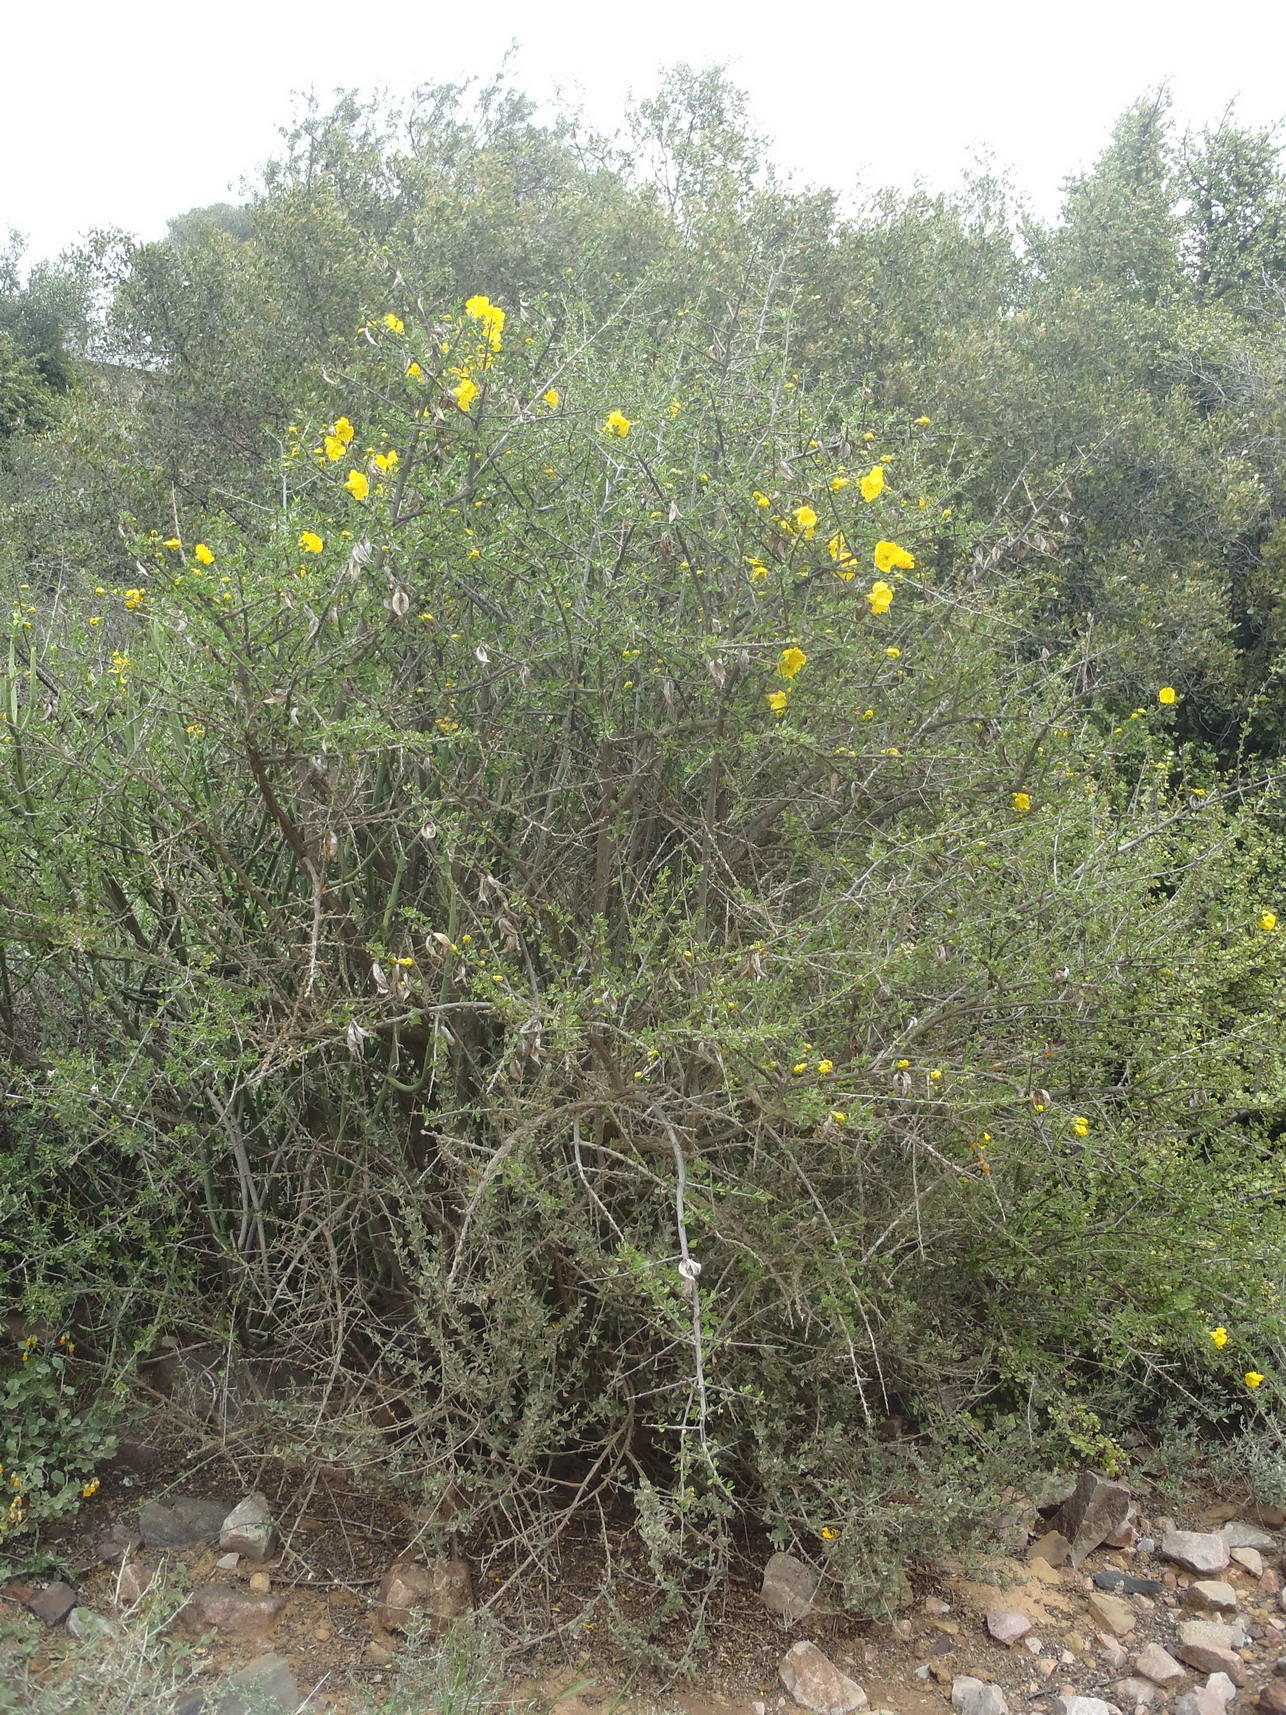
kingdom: Plantae
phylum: Tracheophyta
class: Magnoliopsida
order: Lamiales
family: Bignoniaceae
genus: Rhigozum
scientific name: Rhigozum obovatum
